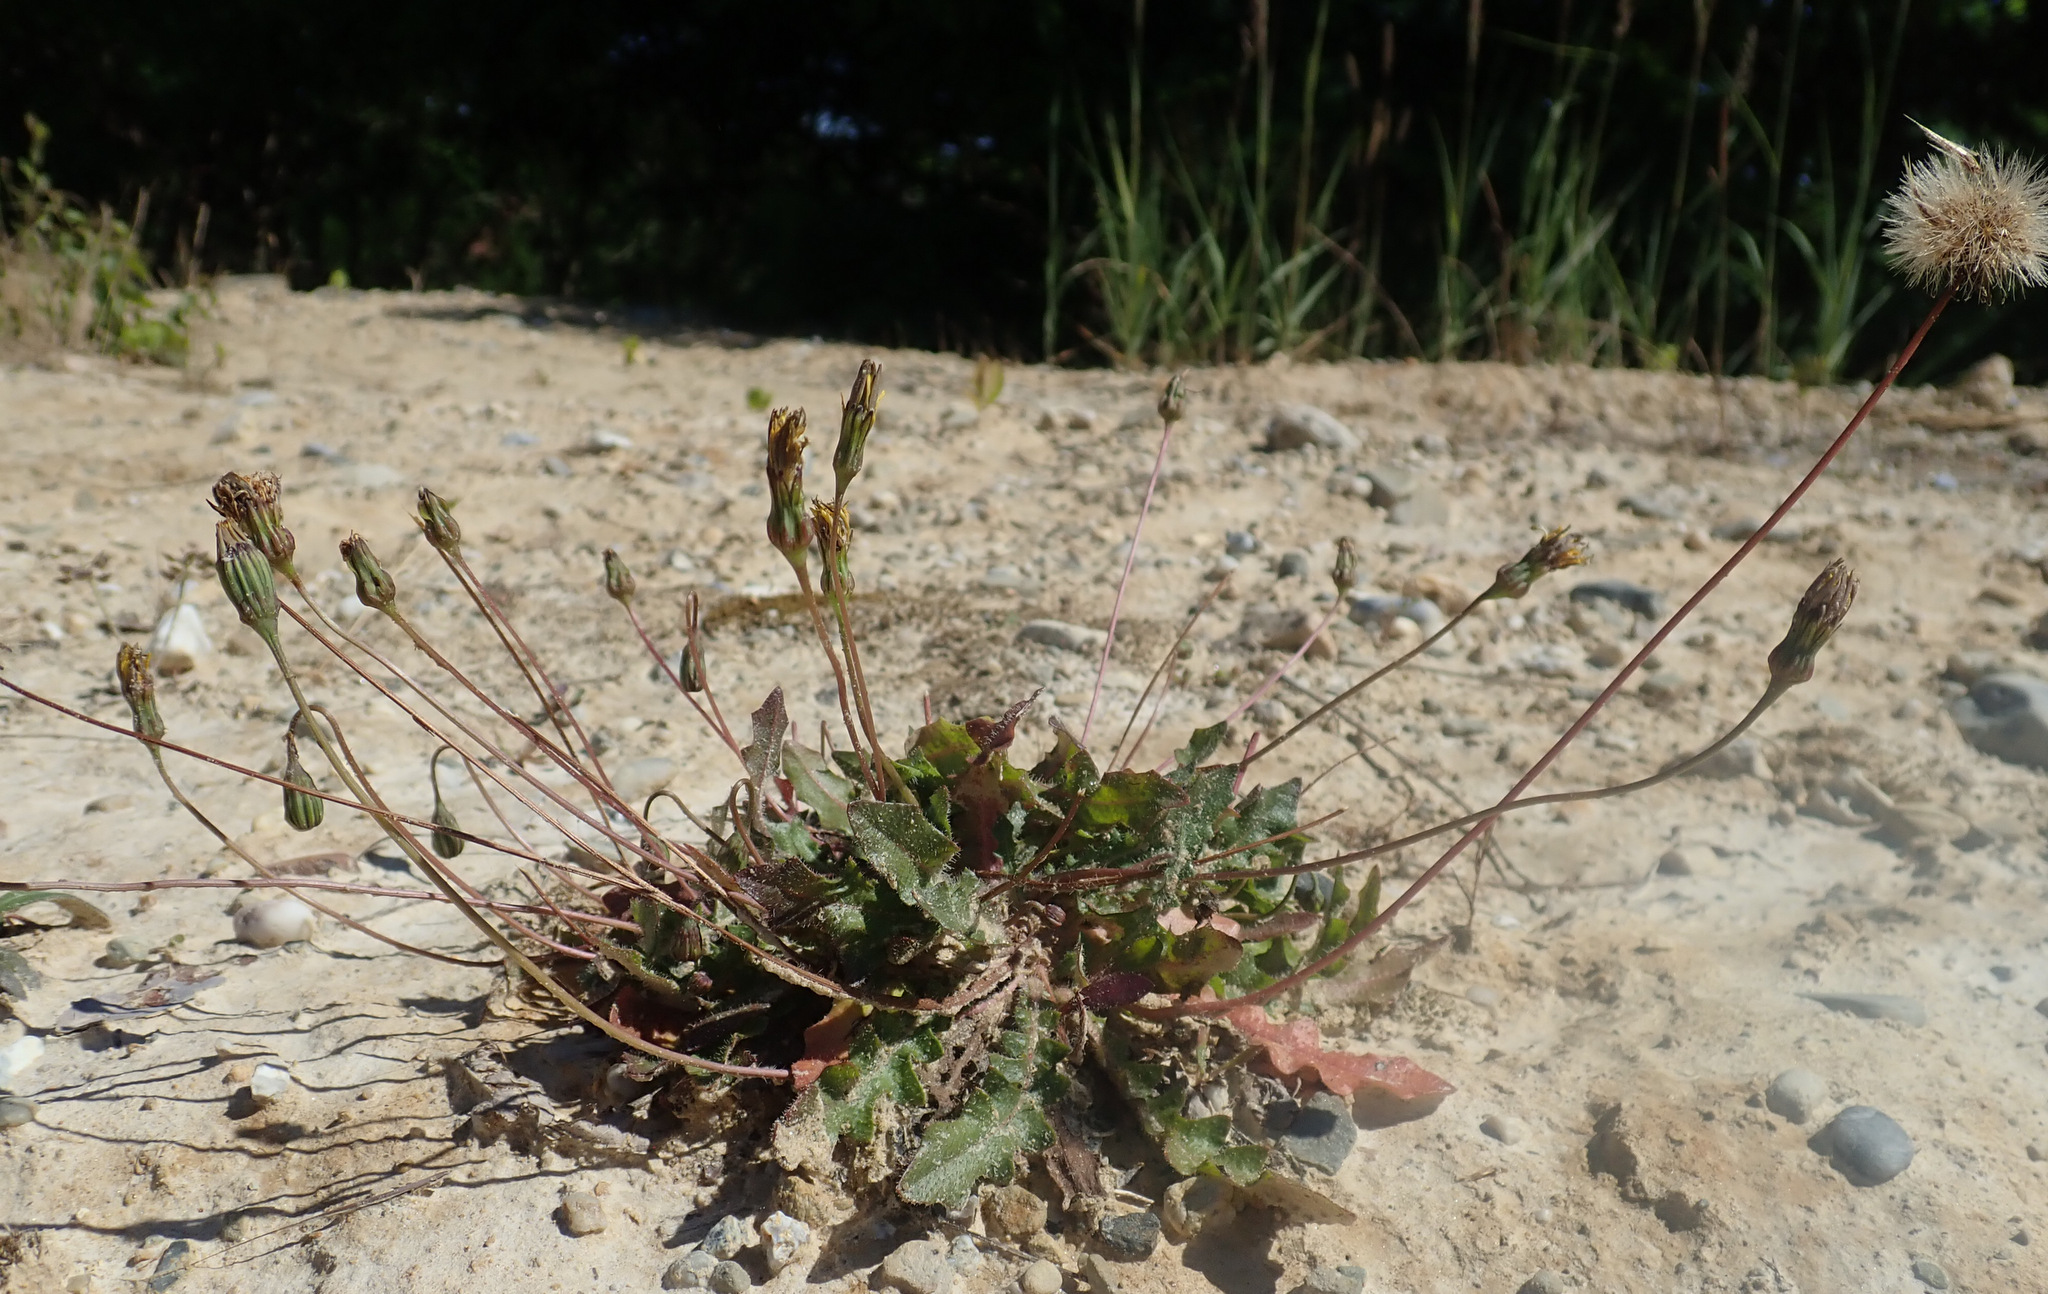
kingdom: Plantae
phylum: Tracheophyta
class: Magnoliopsida
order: Asterales
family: Asteraceae
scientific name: Asteraceae
